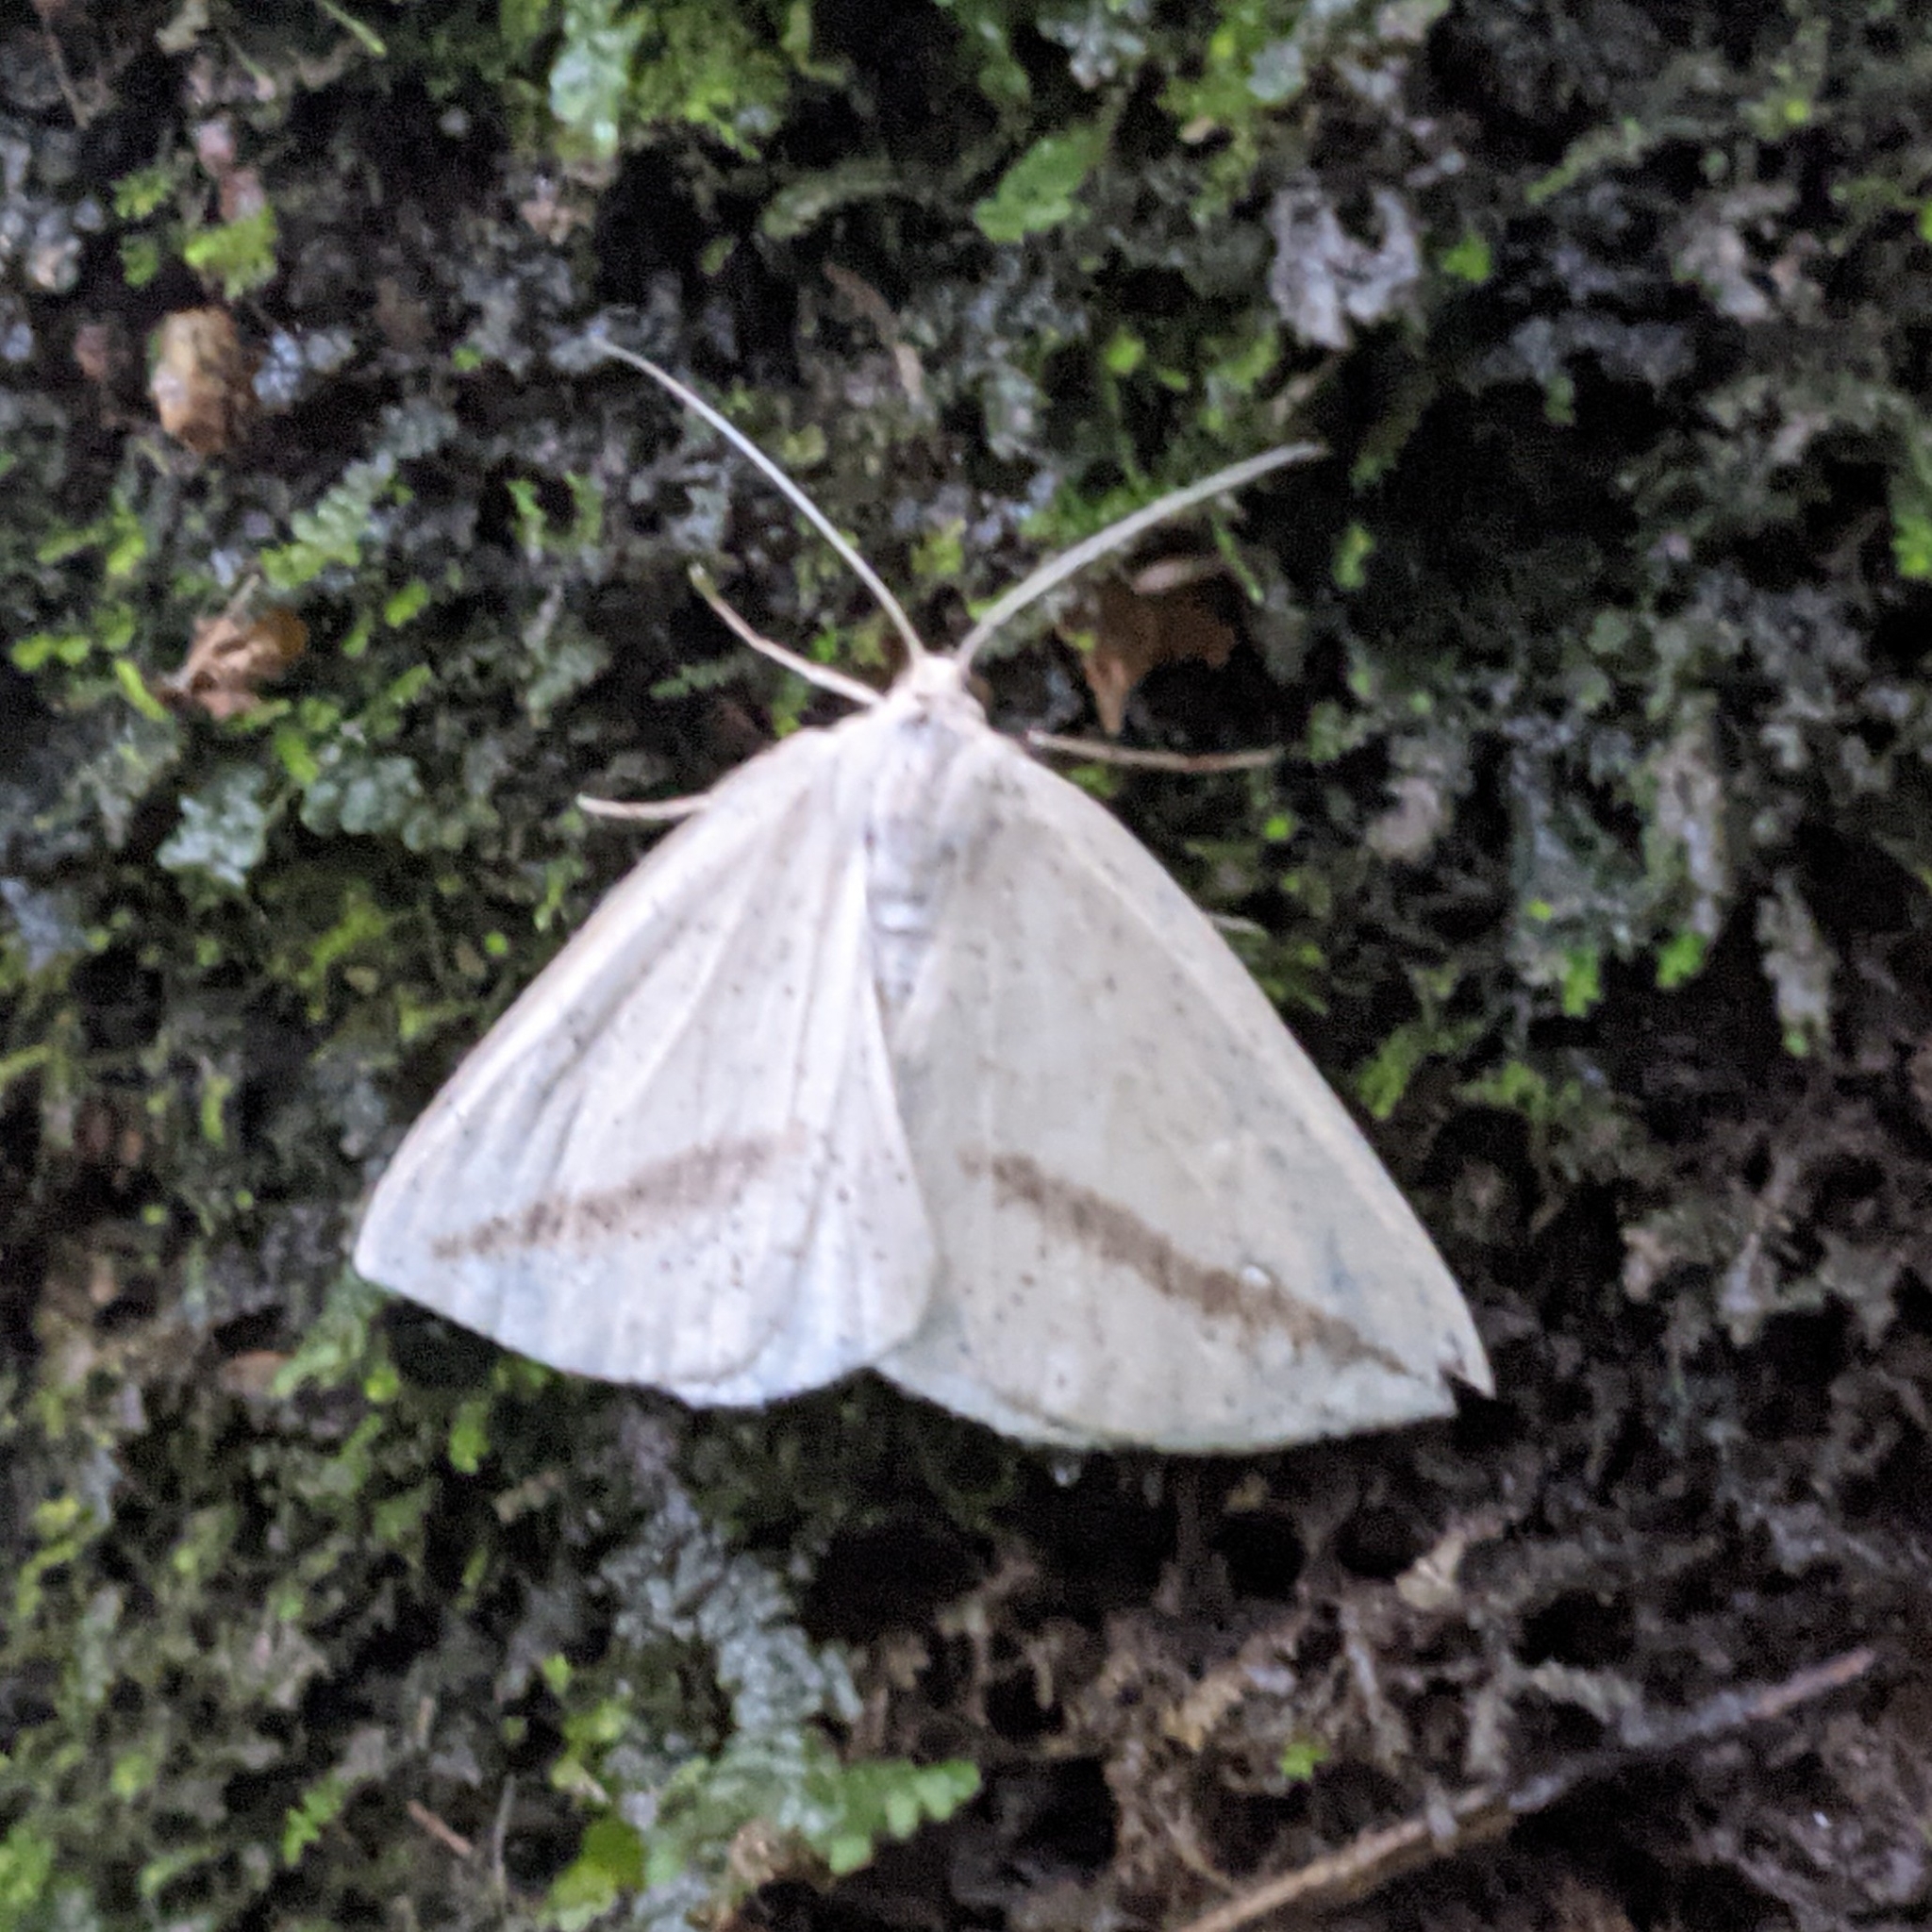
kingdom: Animalia
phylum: Arthropoda
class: Insecta
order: Lepidoptera
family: Geometridae
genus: Lychnosea
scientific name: Lychnosea intermicata
